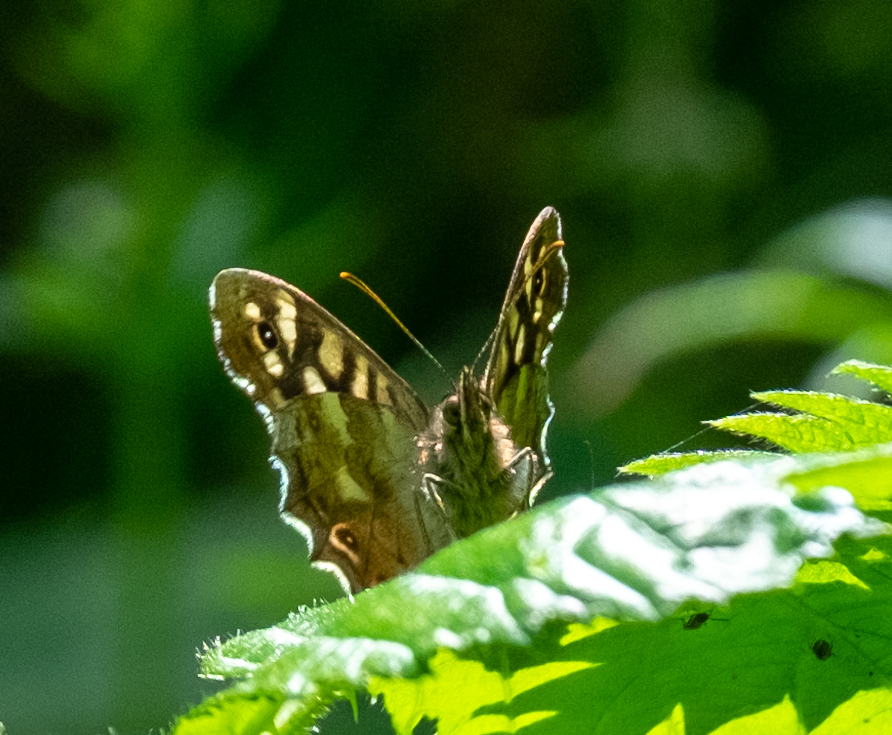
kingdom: Animalia
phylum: Arthropoda
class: Insecta
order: Lepidoptera
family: Nymphalidae
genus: Pararge
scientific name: Pararge aegeria
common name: Speckled wood
